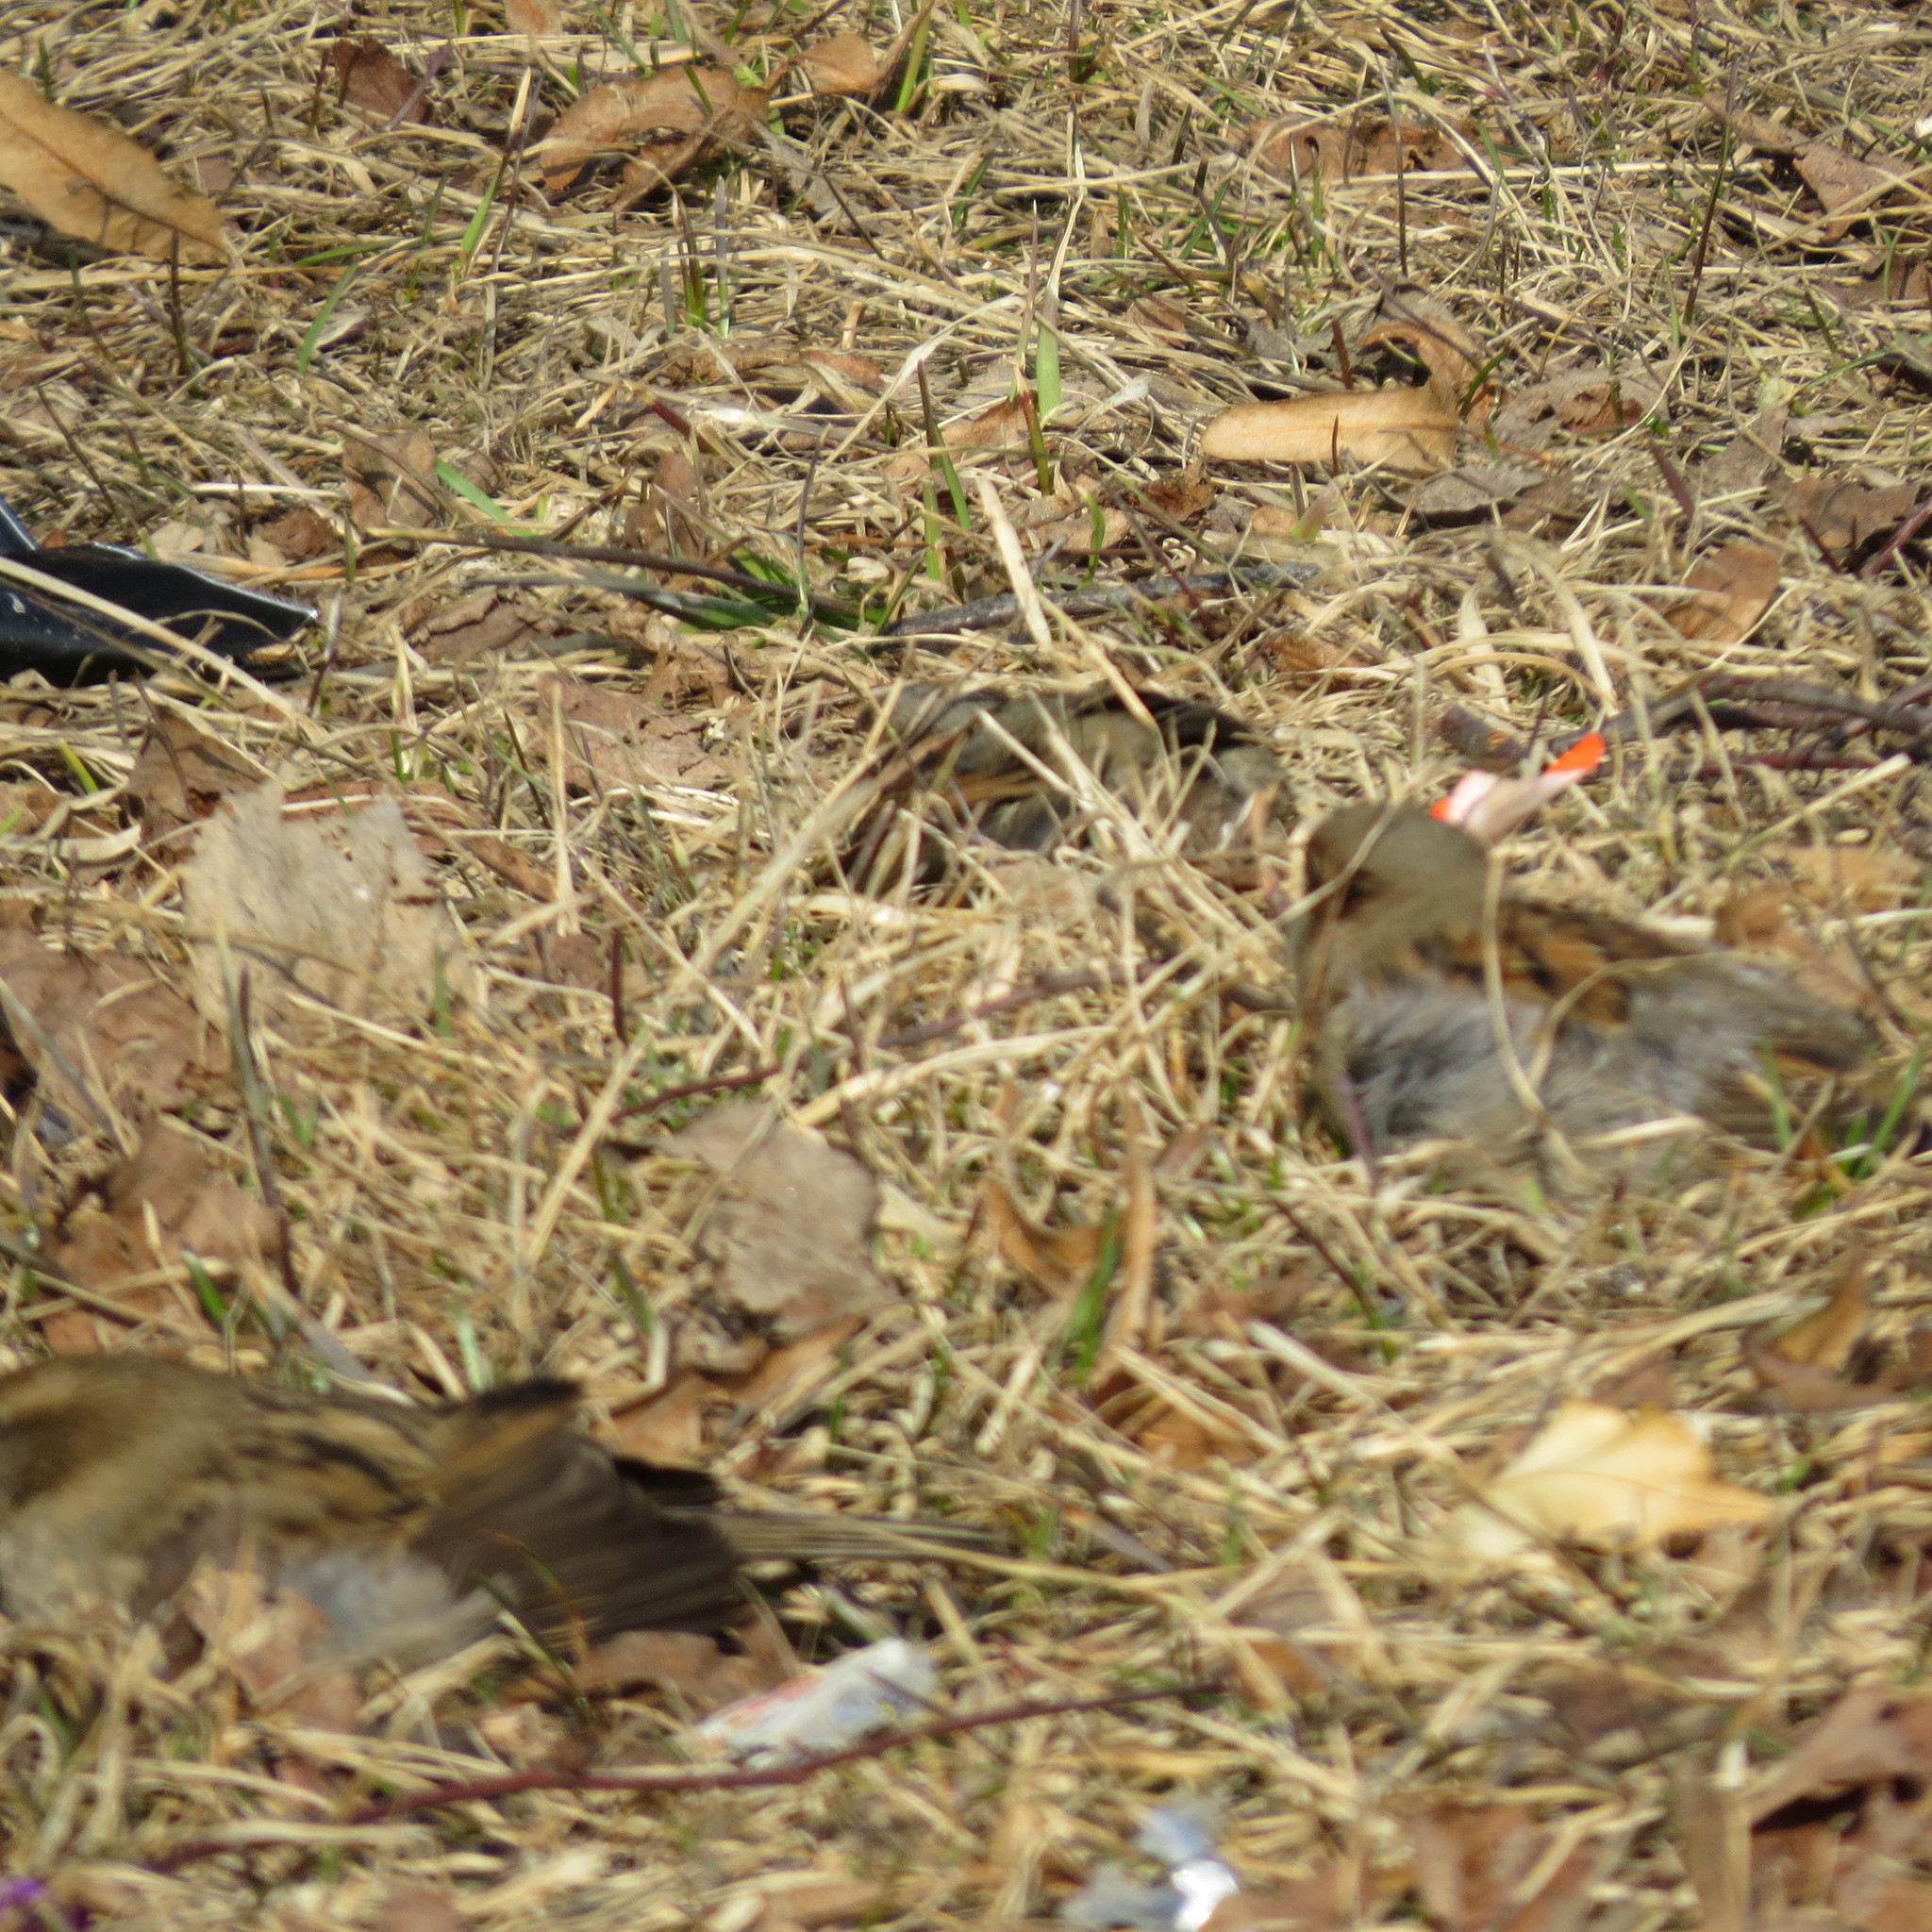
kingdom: Animalia
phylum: Chordata
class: Aves
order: Passeriformes
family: Passeridae
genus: Passer
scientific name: Passer domesticus
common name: House sparrow
